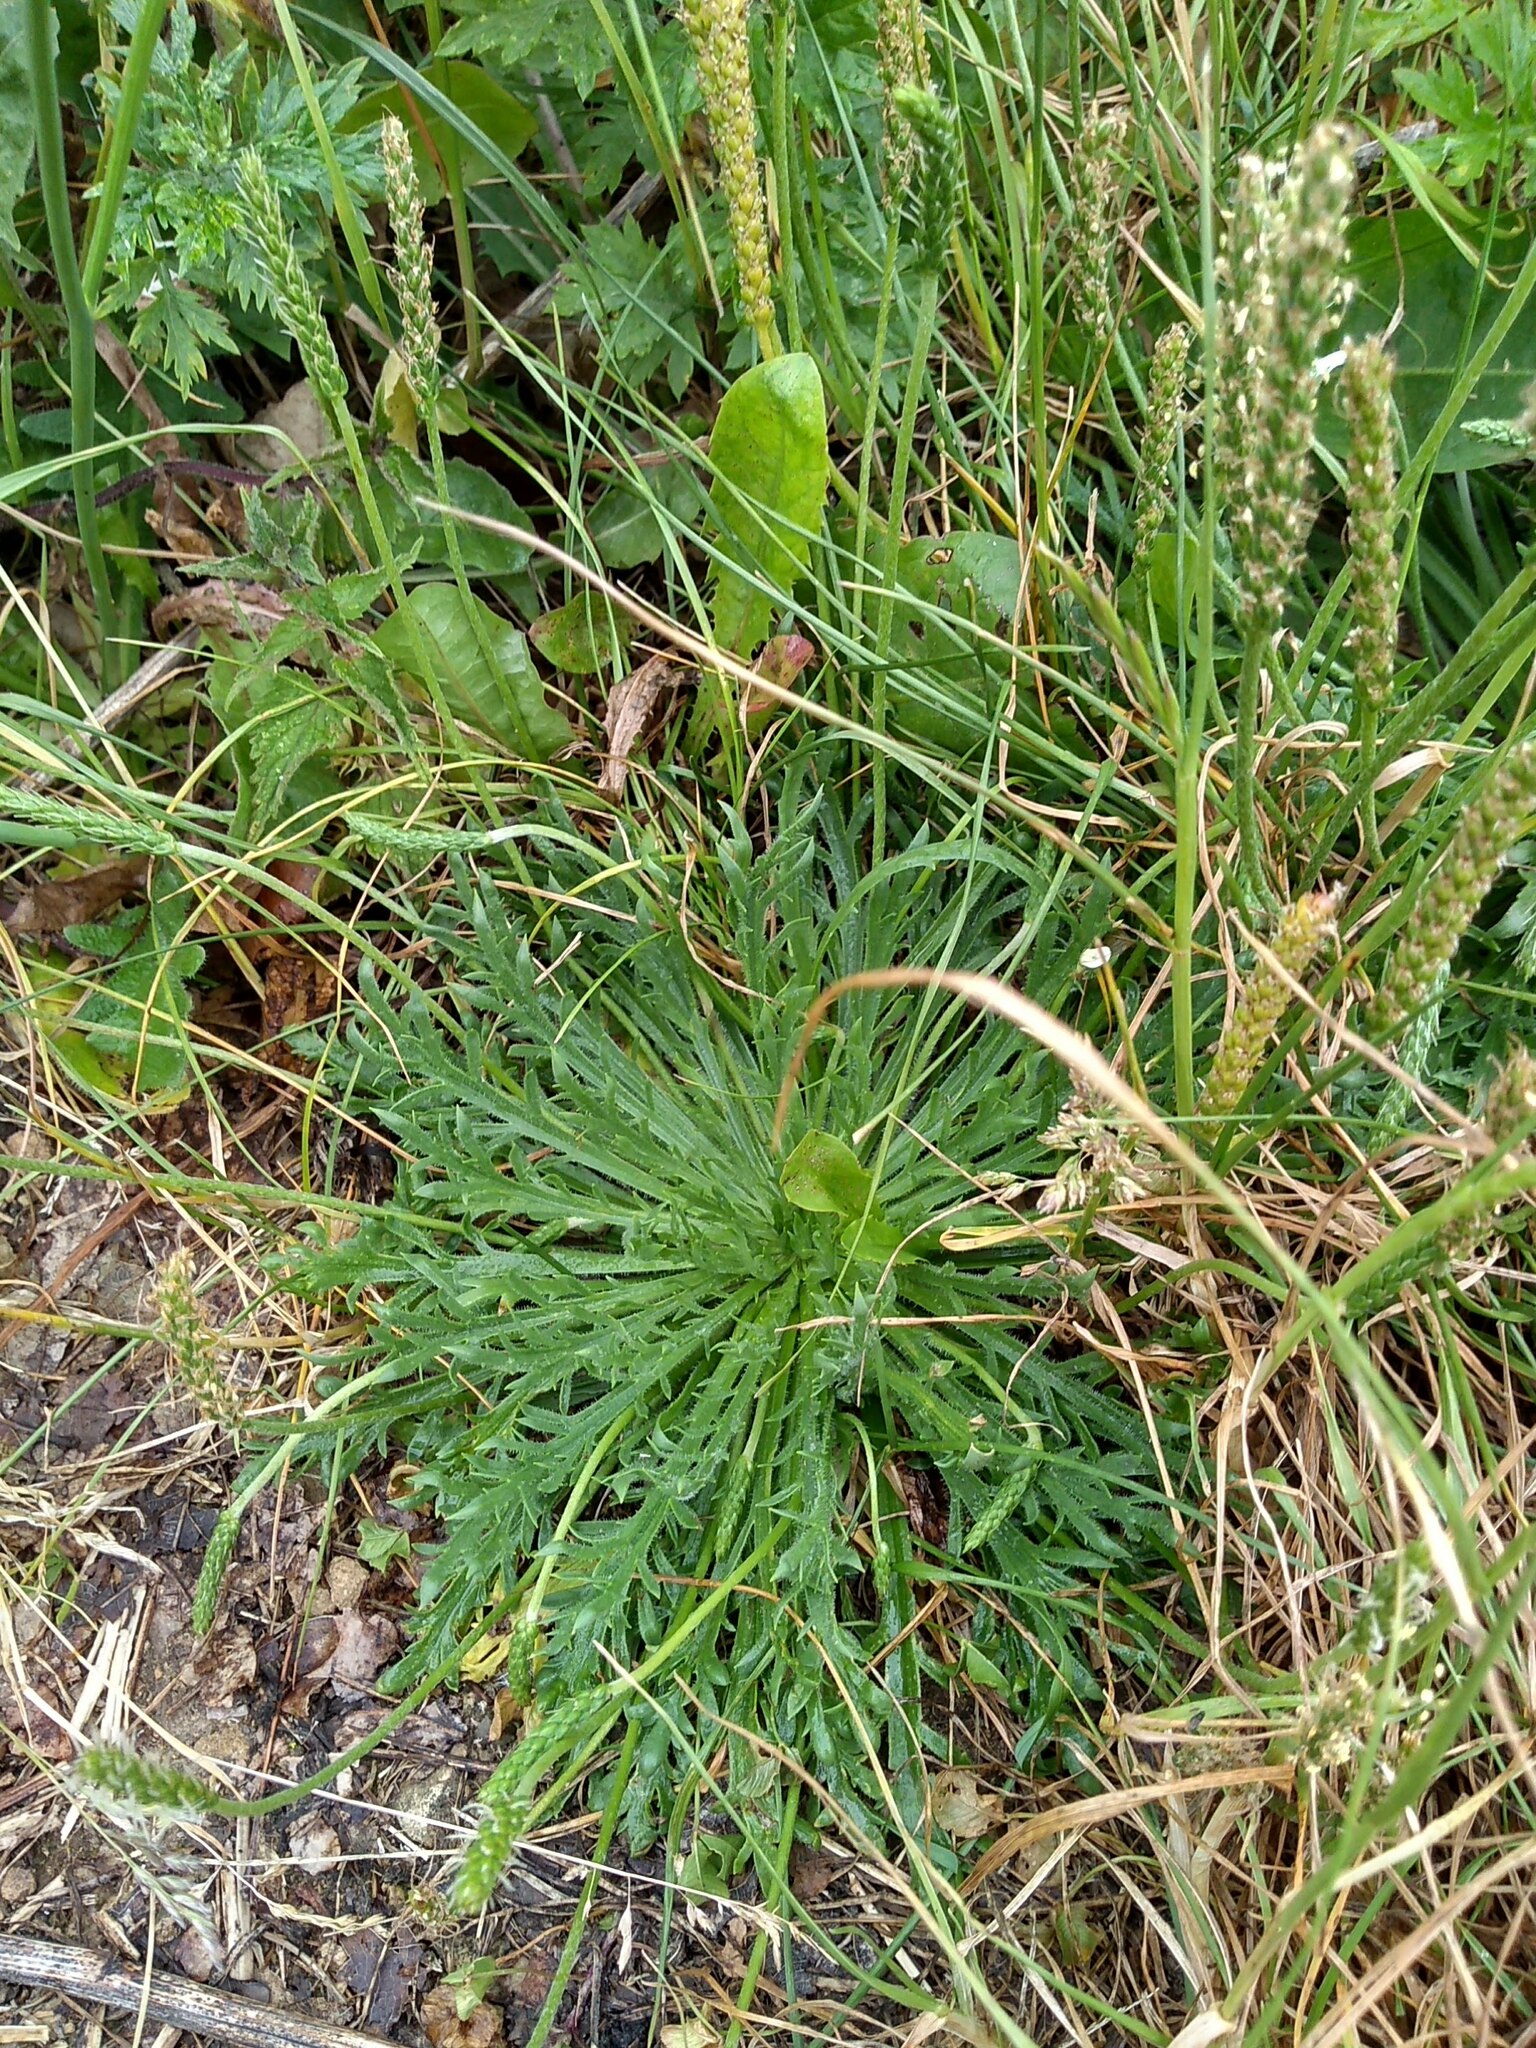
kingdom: Plantae
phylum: Tracheophyta
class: Magnoliopsida
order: Lamiales
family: Plantaginaceae
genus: Plantago
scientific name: Plantago coronopus
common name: Buck's-horn plantain
